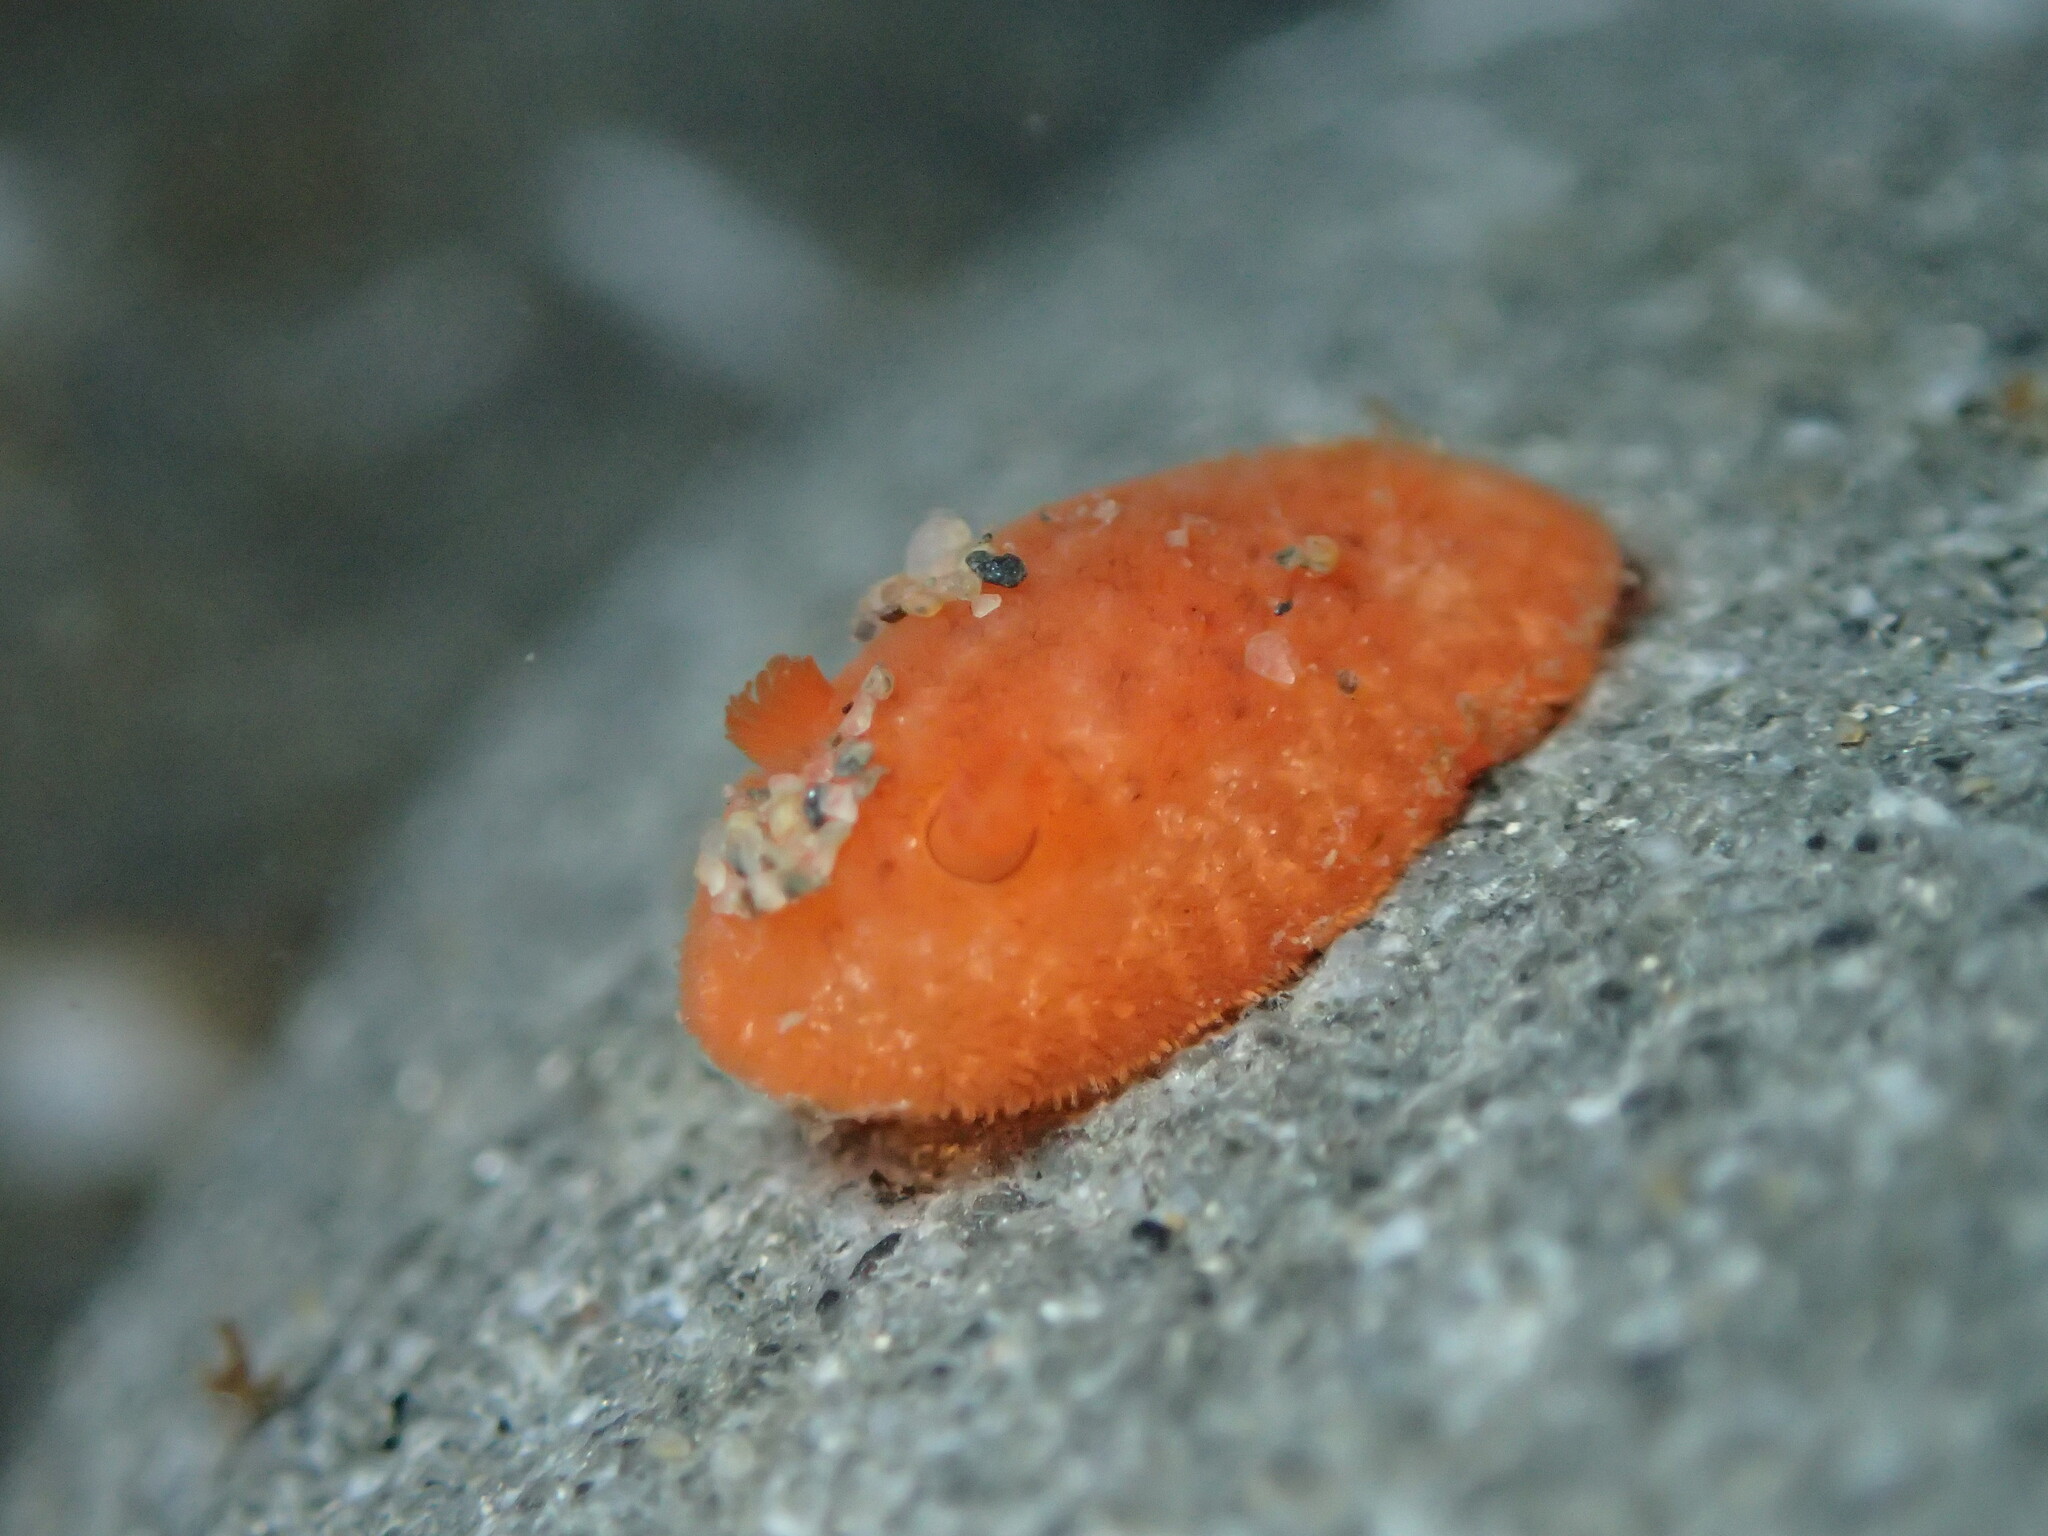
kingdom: Animalia
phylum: Mollusca
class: Gastropoda
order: Nudibranchia
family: Discodorididae
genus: Rostanga
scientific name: Rostanga pulchra
